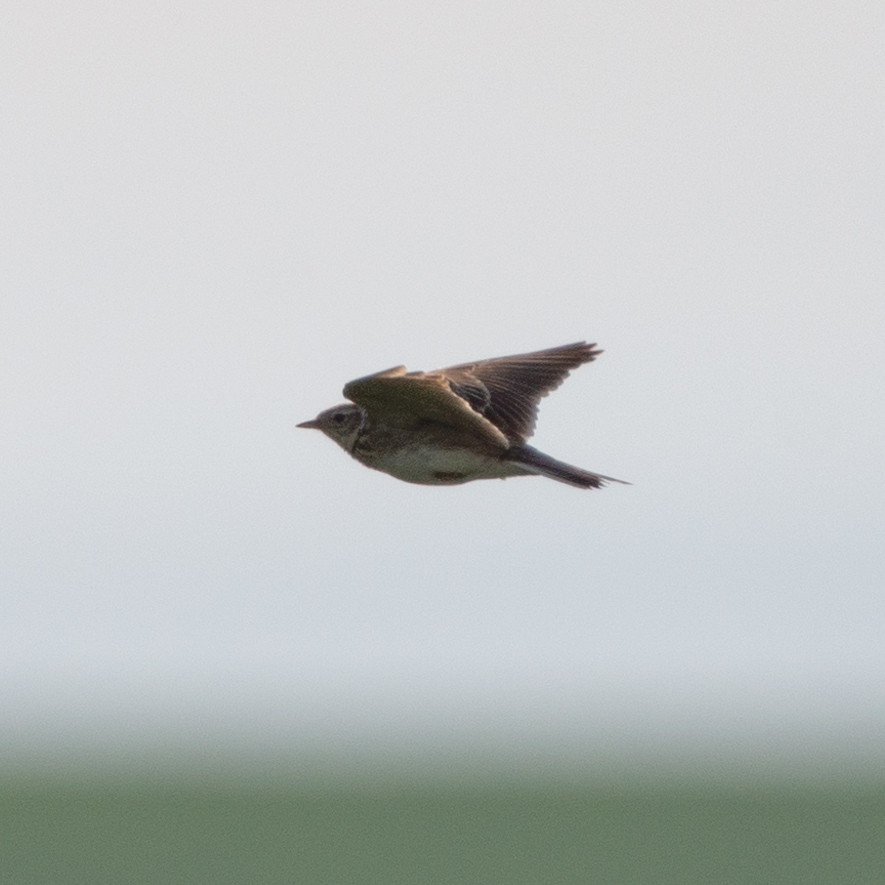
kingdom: Animalia
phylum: Chordata
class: Aves
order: Passeriformes
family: Alaudidae
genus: Alauda
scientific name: Alauda arvensis
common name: Eurasian skylark
